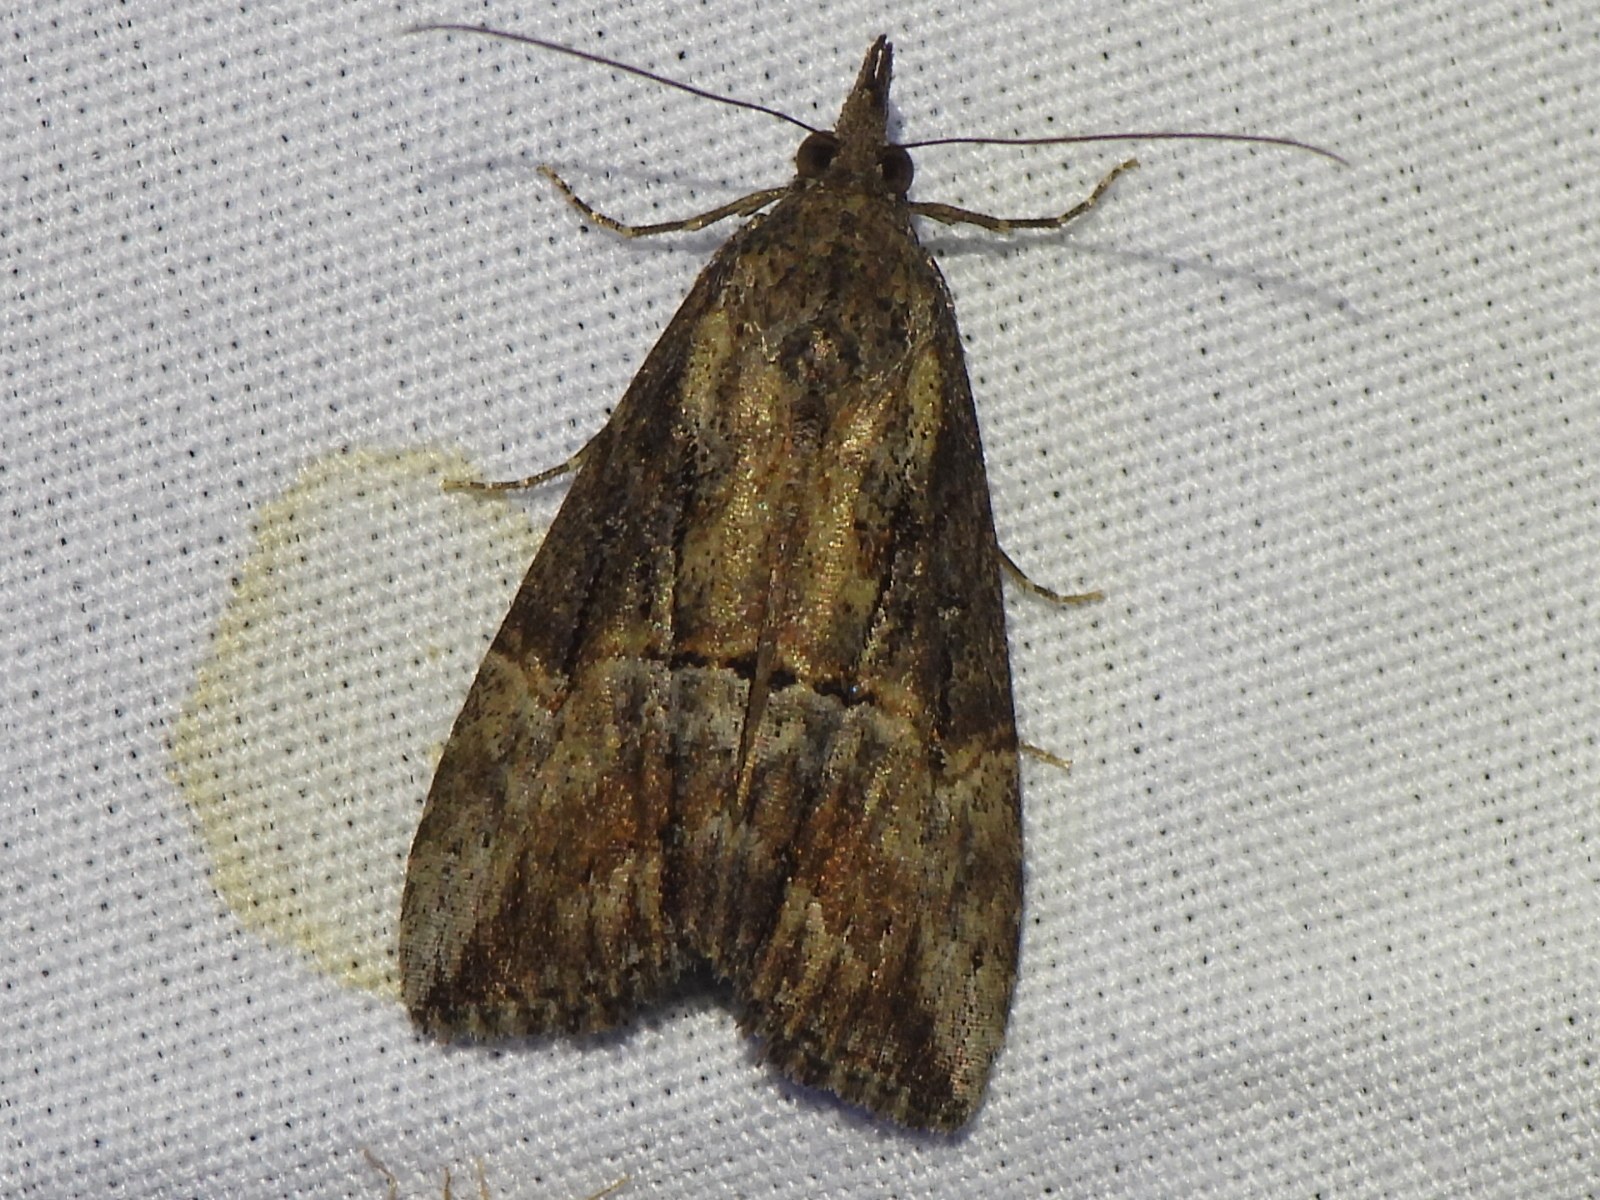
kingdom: Animalia
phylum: Arthropoda
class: Insecta
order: Lepidoptera
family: Erebidae
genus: Hypena
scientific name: Hypena scabra
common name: Green cloverworm
